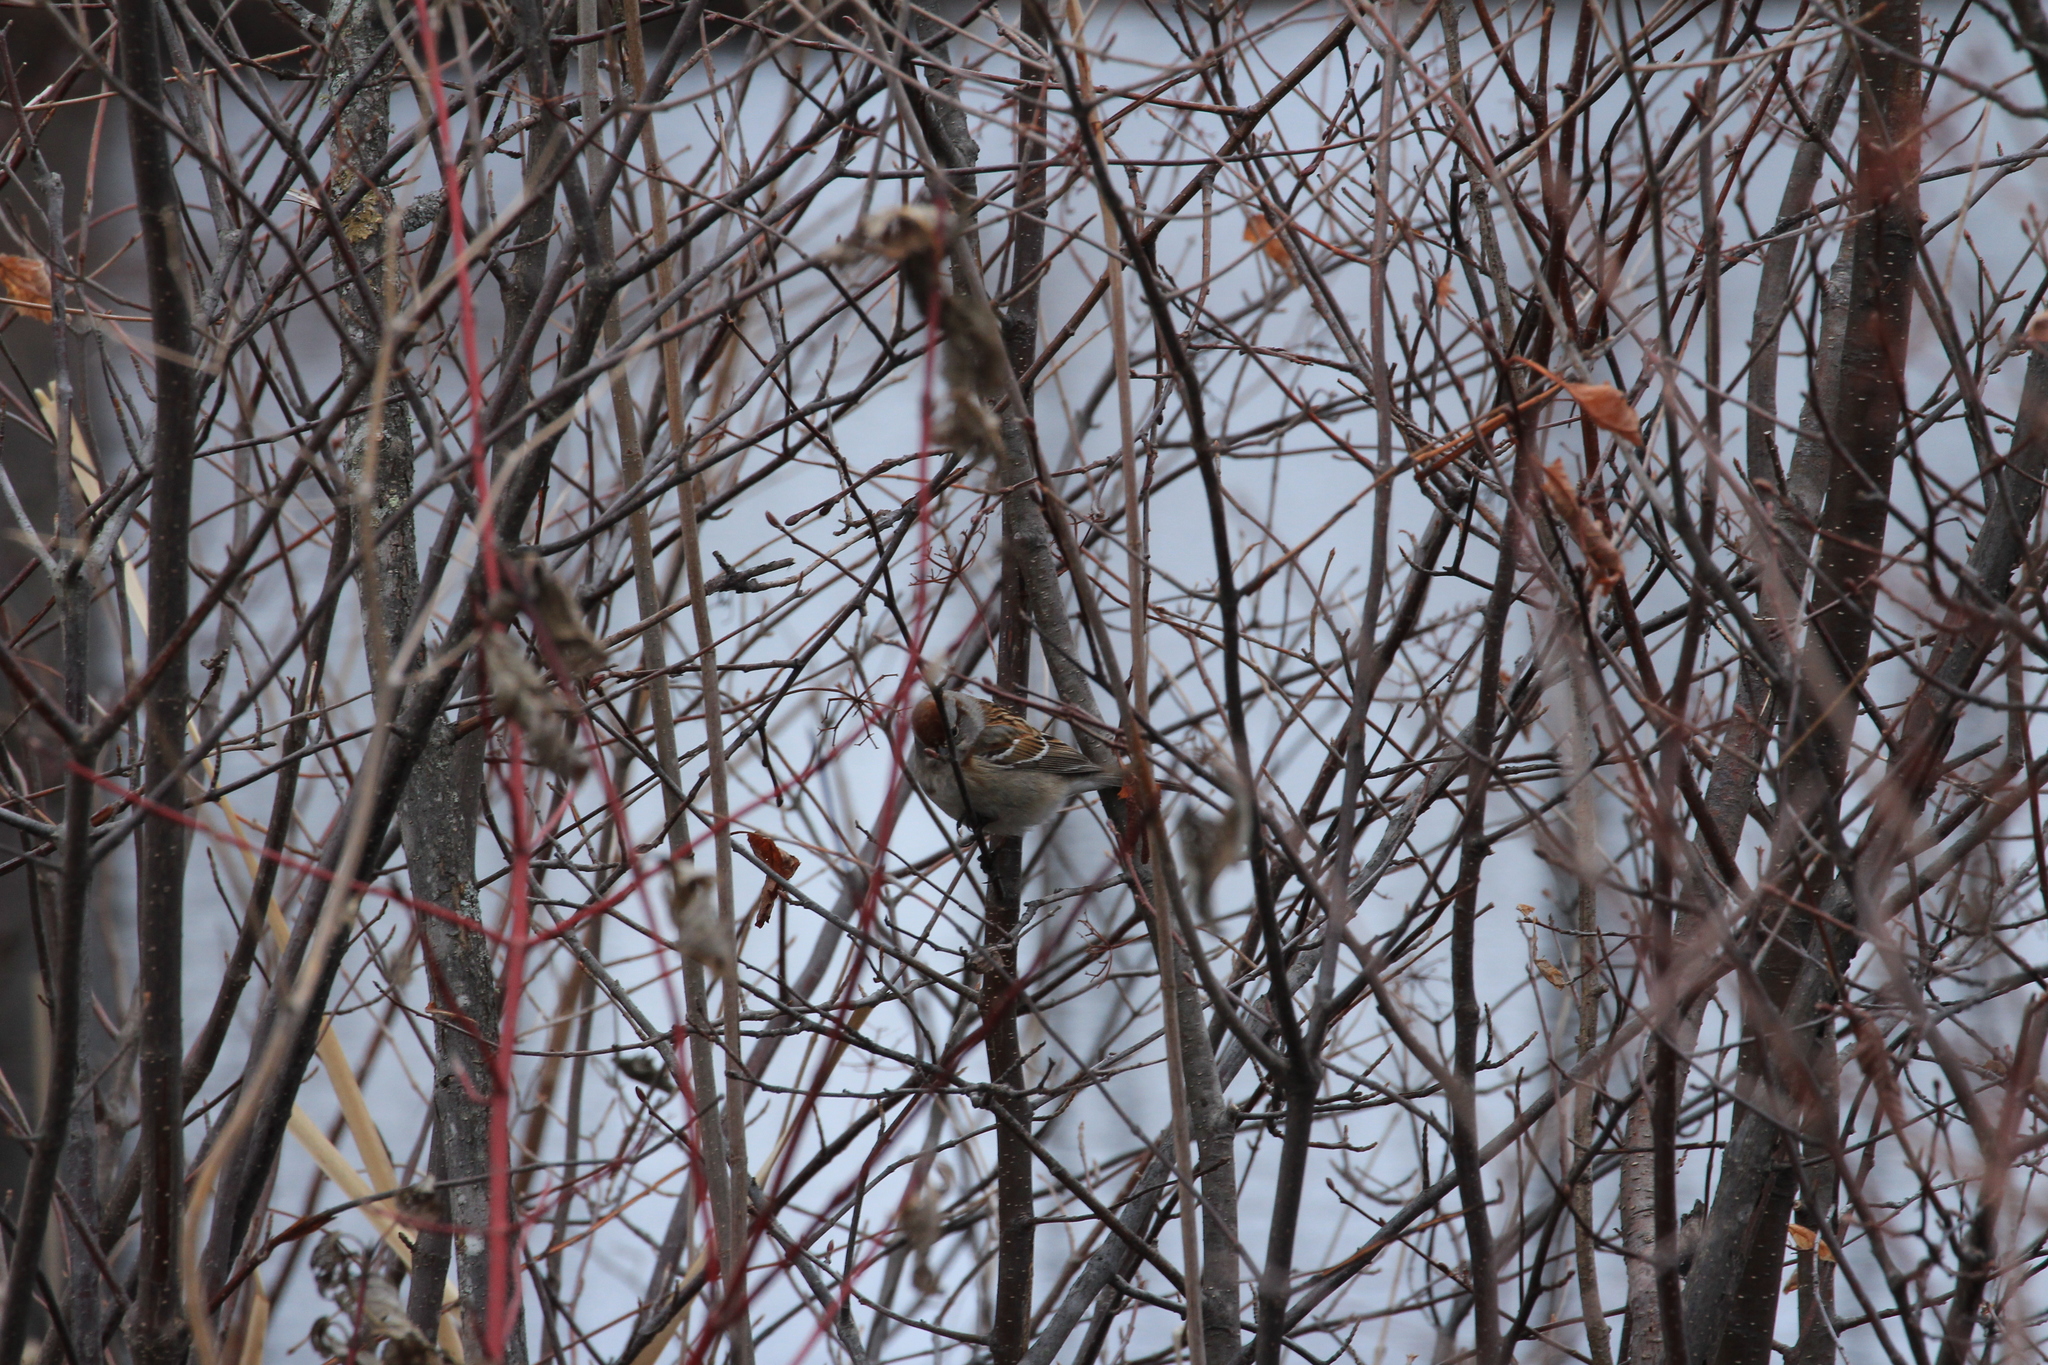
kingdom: Animalia
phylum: Chordata
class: Aves
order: Passeriformes
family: Passerellidae
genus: Spizelloides
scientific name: Spizelloides arborea
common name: American tree sparrow
